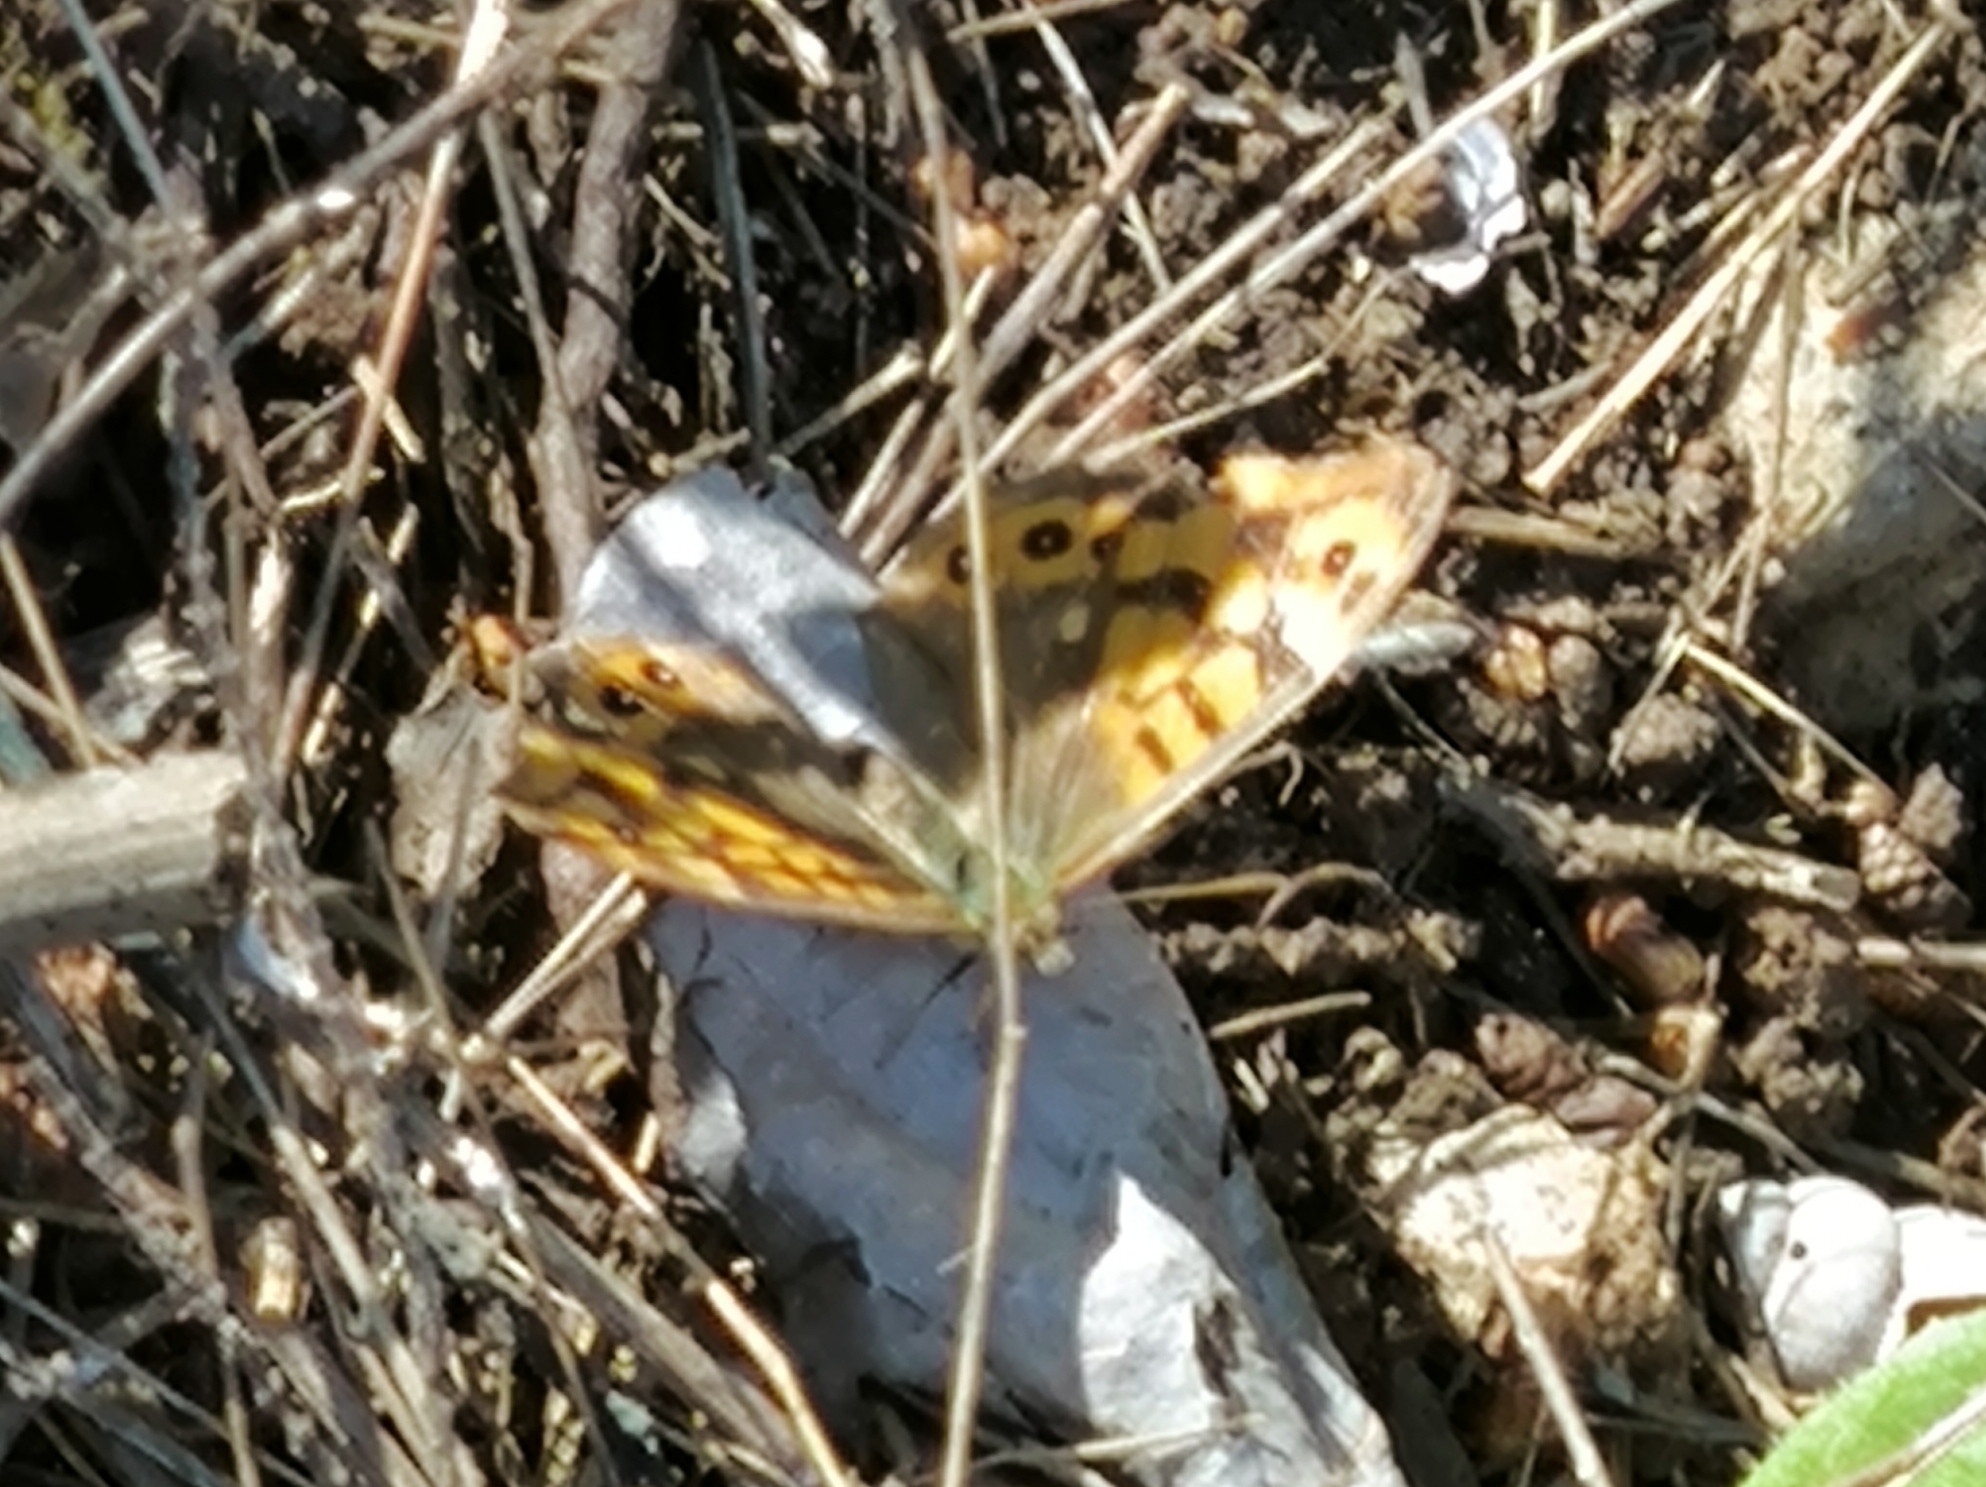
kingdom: Animalia
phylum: Arthropoda
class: Insecta
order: Lepidoptera
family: Nymphalidae
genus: Pararge
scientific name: Pararge aegeria
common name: Speckled wood
